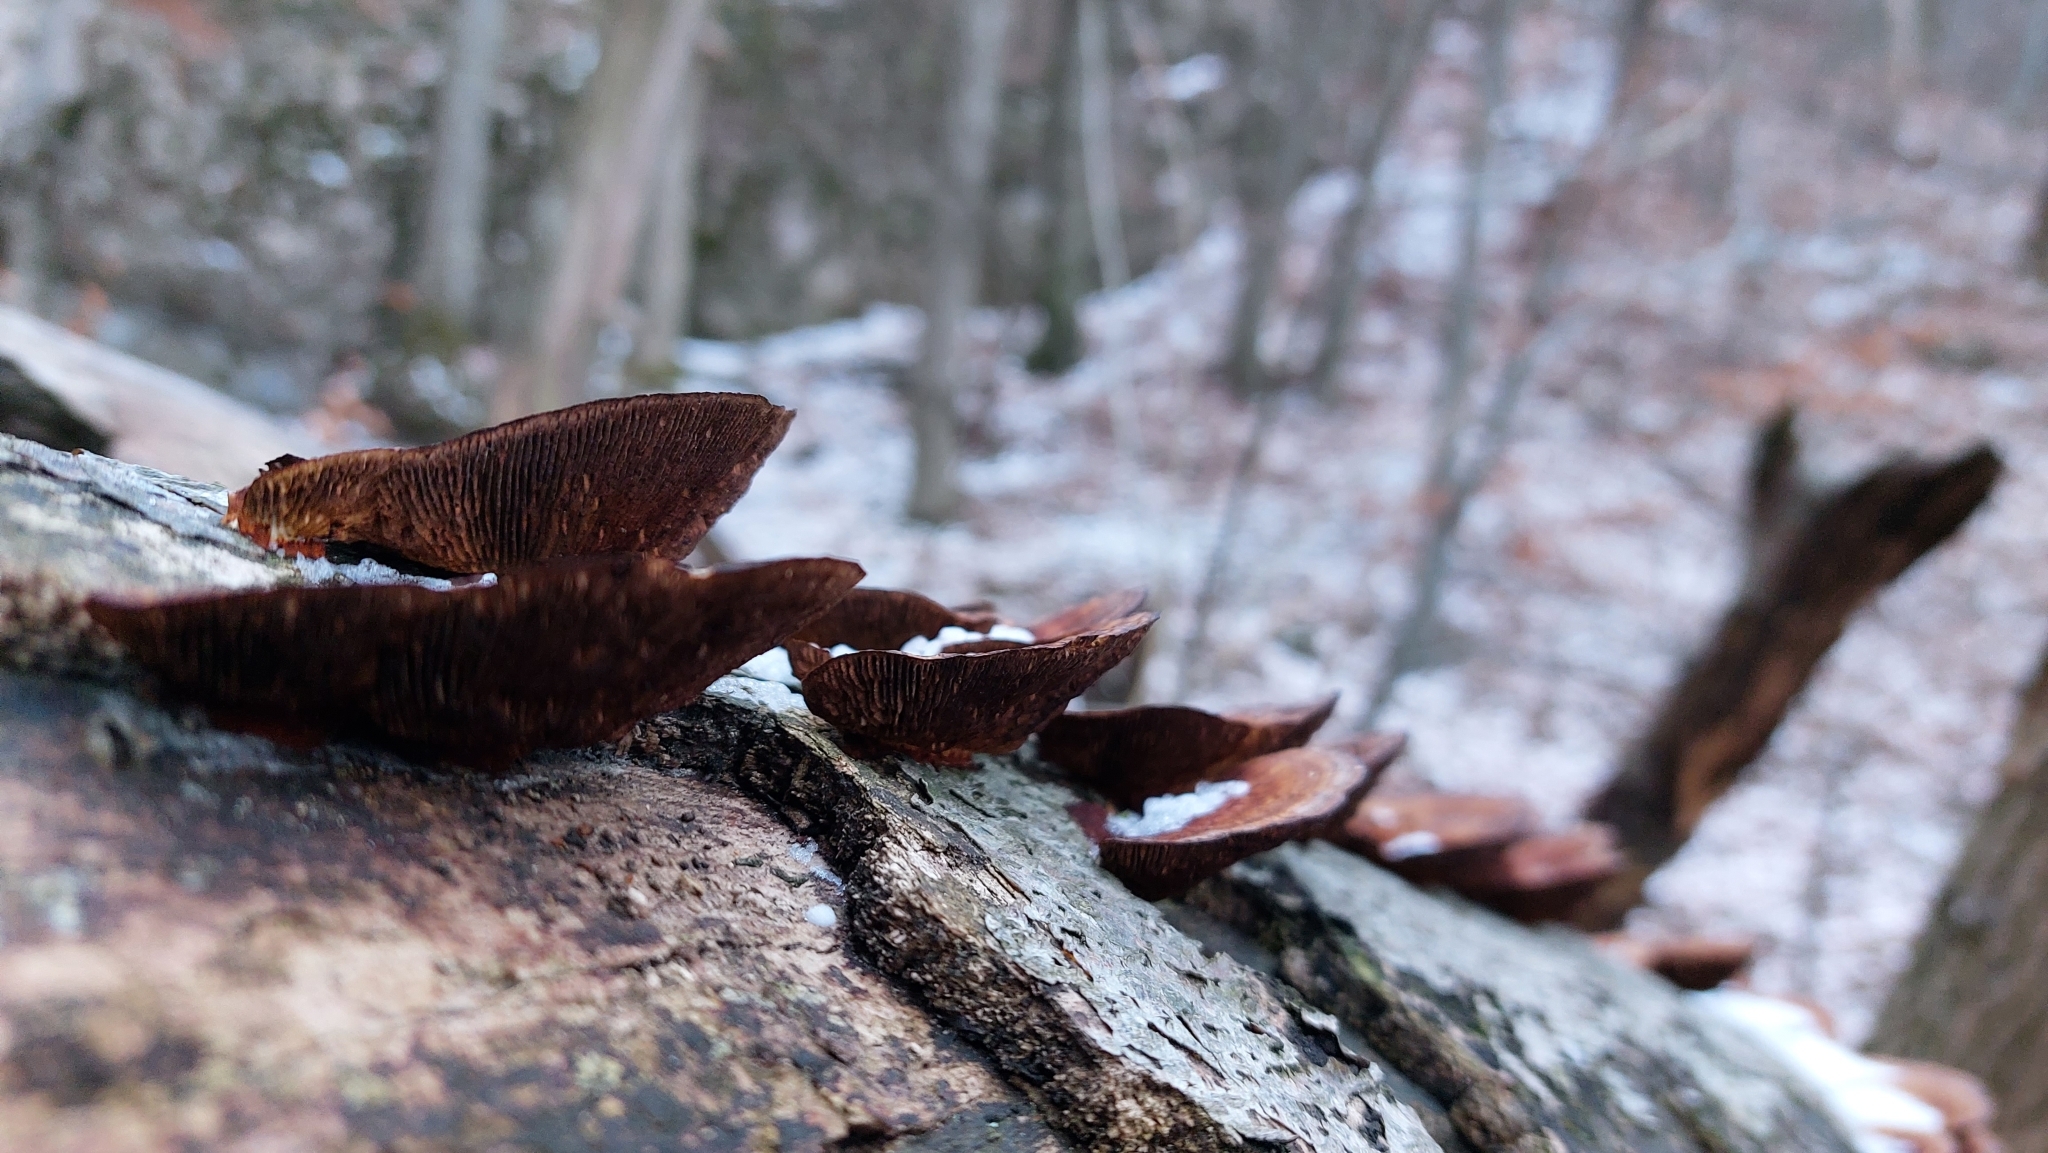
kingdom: Fungi
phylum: Basidiomycota
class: Agaricomycetes
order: Polyporales
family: Polyporaceae
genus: Daedaleopsis
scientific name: Daedaleopsis tricolor
